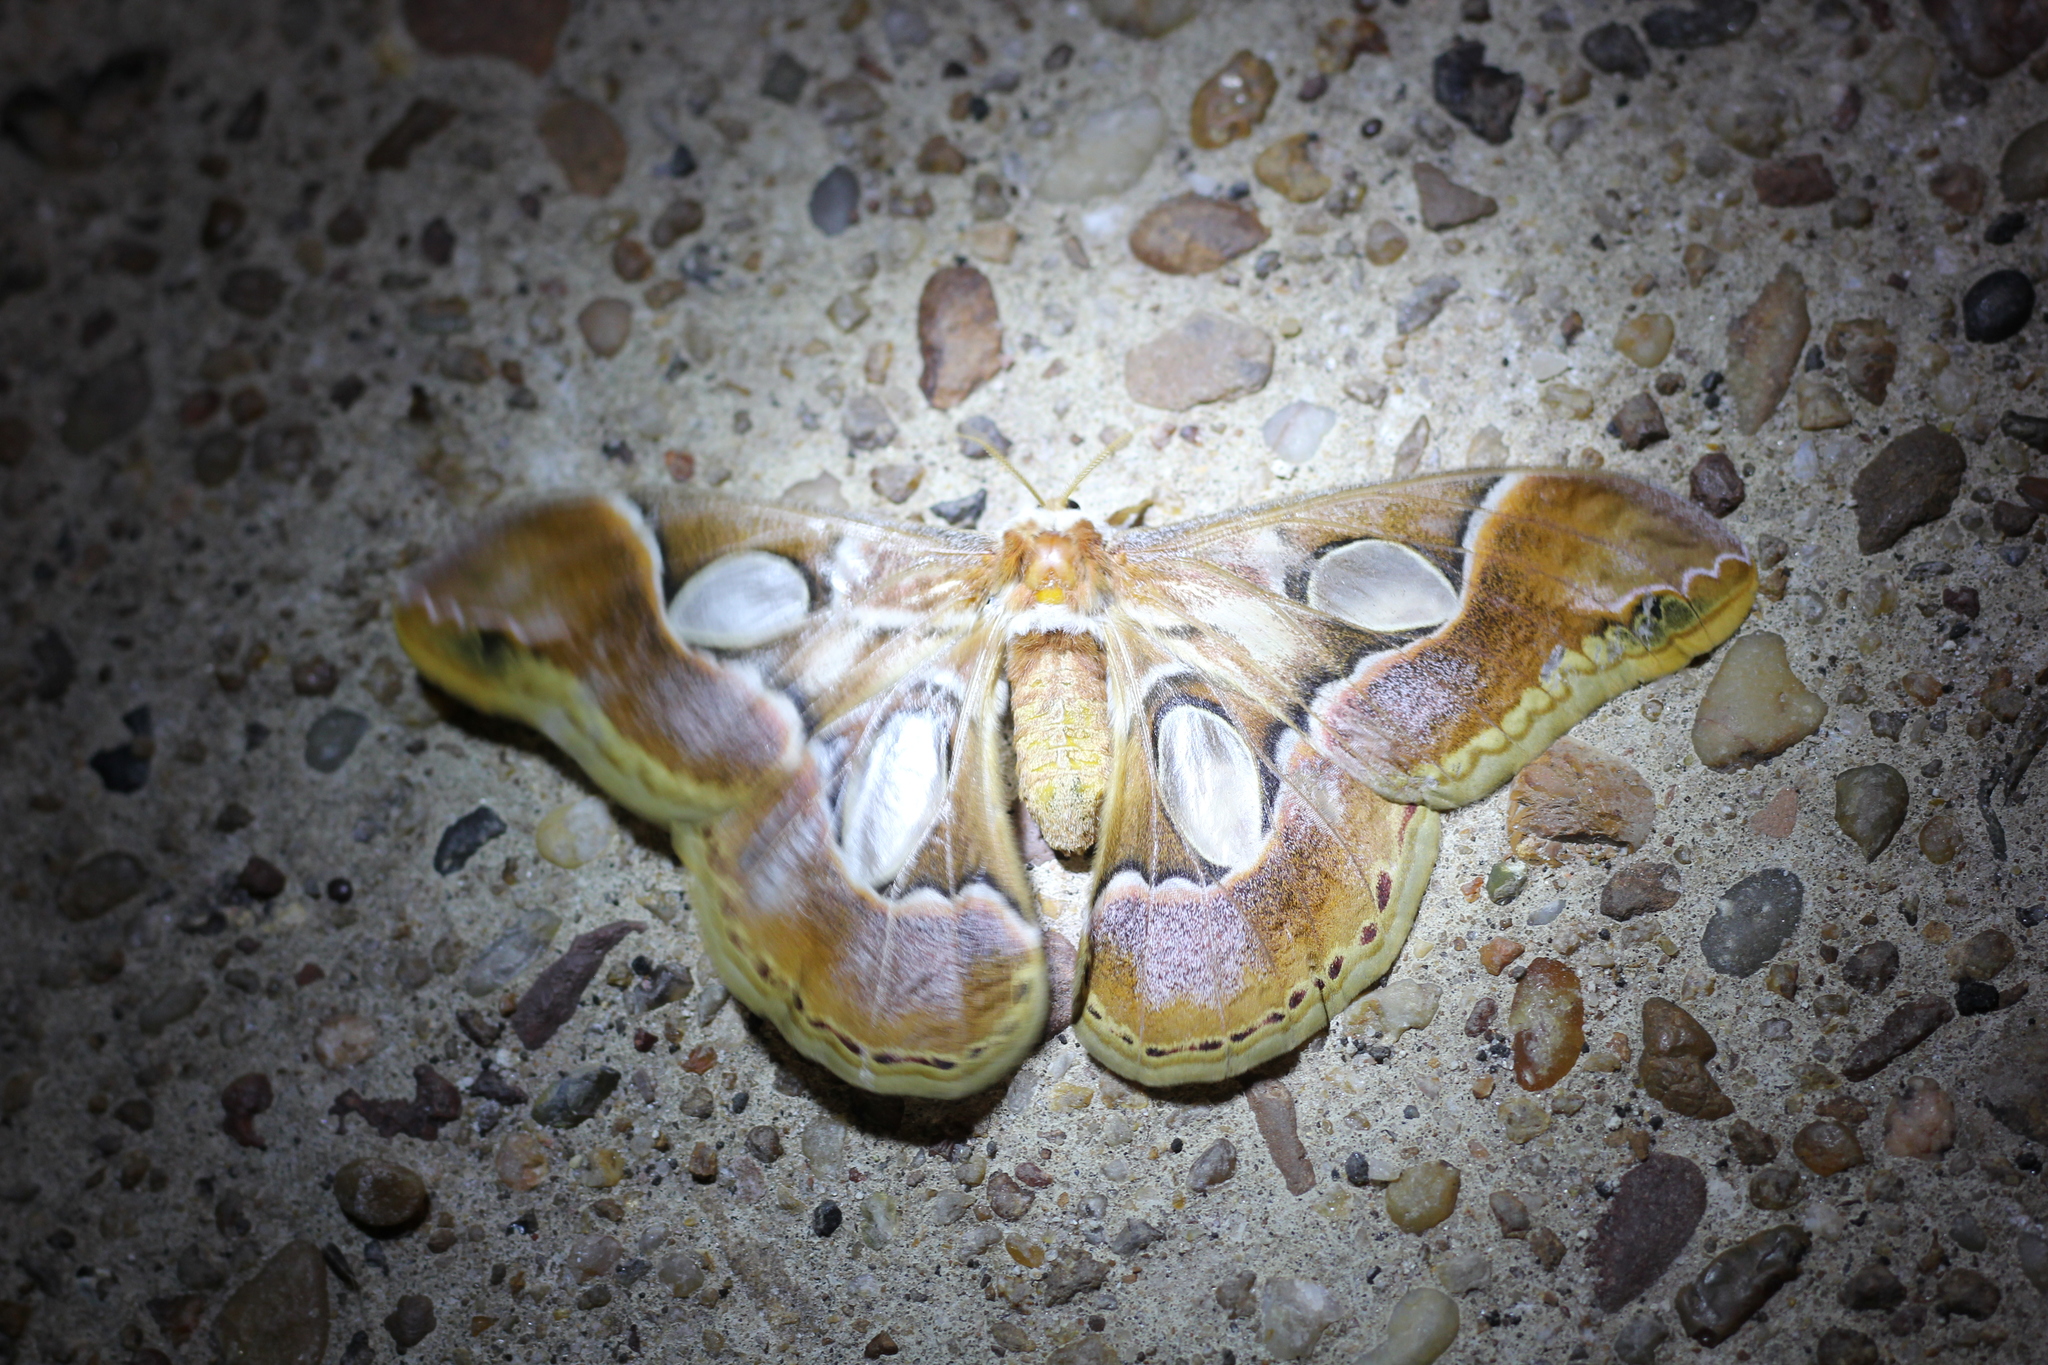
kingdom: Animalia
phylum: Arthropoda
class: Insecta
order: Lepidoptera
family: Saturniidae
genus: Rothschildia
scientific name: Rothschildia arethusa
